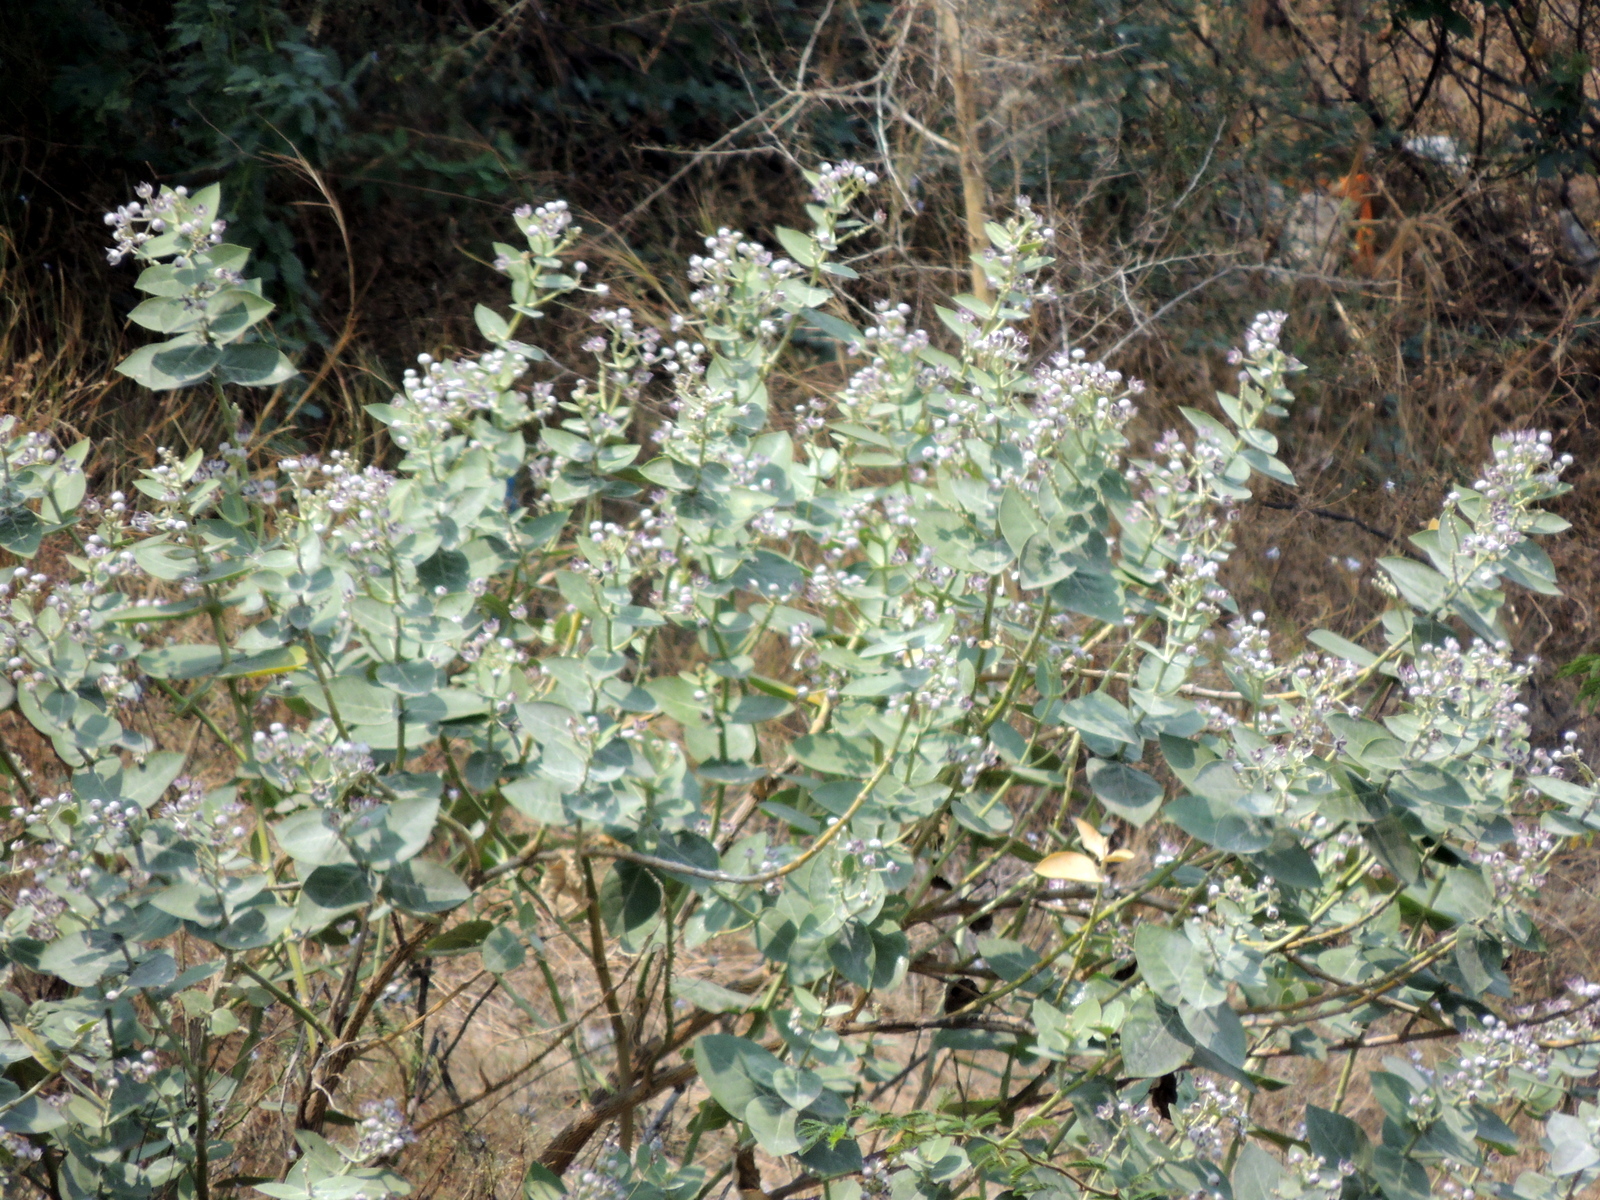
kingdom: Plantae
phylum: Tracheophyta
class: Magnoliopsida
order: Gentianales
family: Apocynaceae
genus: Calotropis
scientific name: Calotropis procera
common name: Roostertree
